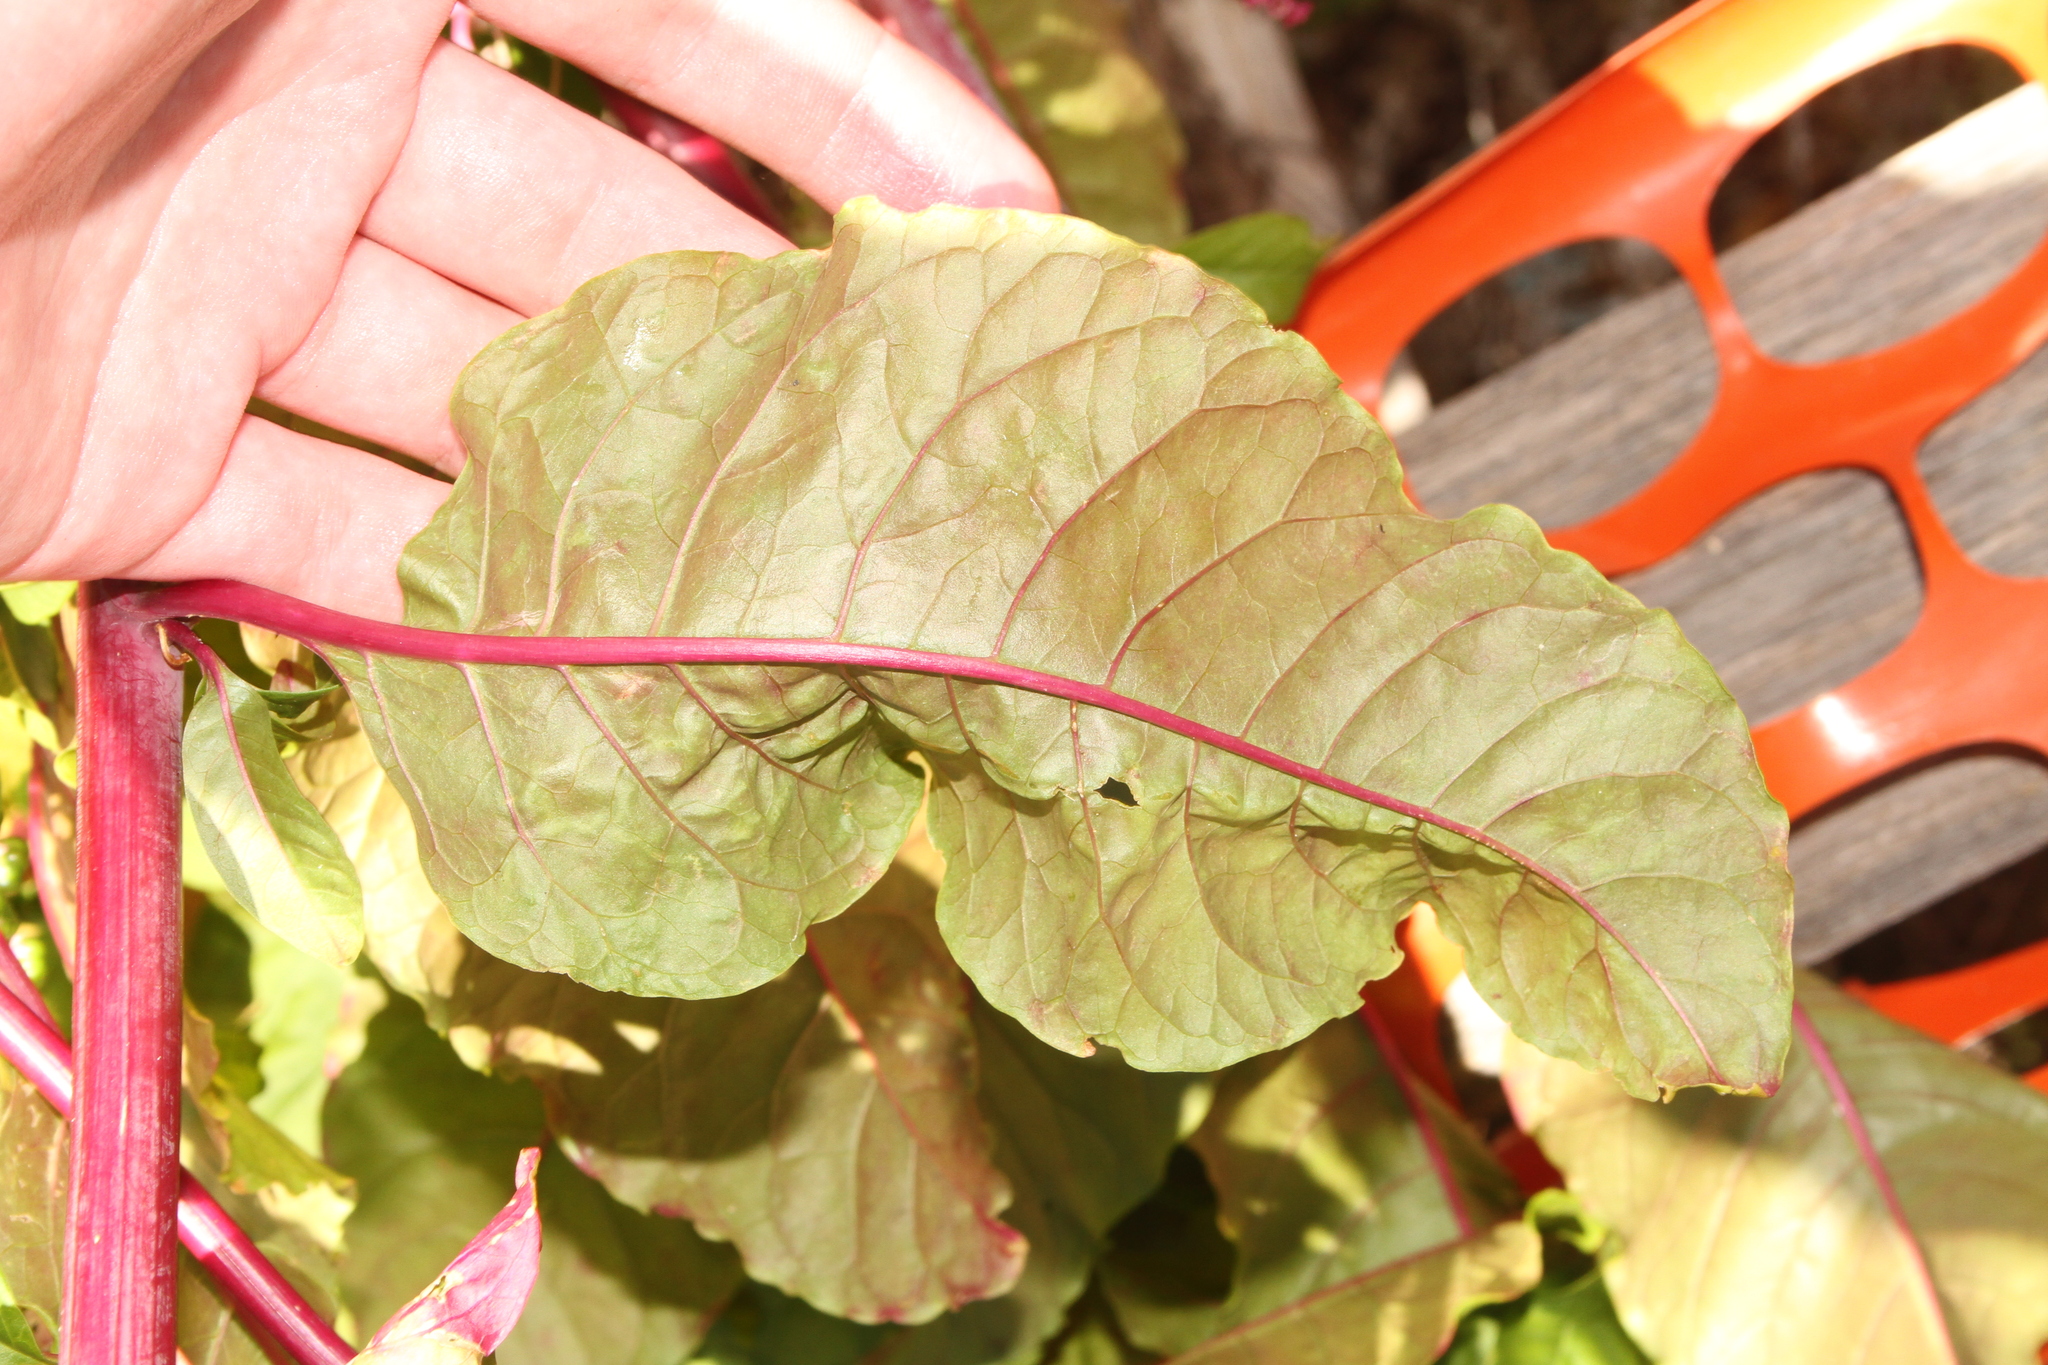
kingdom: Plantae
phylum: Tracheophyta
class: Magnoliopsida
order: Caryophyllales
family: Phytolaccaceae
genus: Phytolacca
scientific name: Phytolacca americana
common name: American pokeweed
